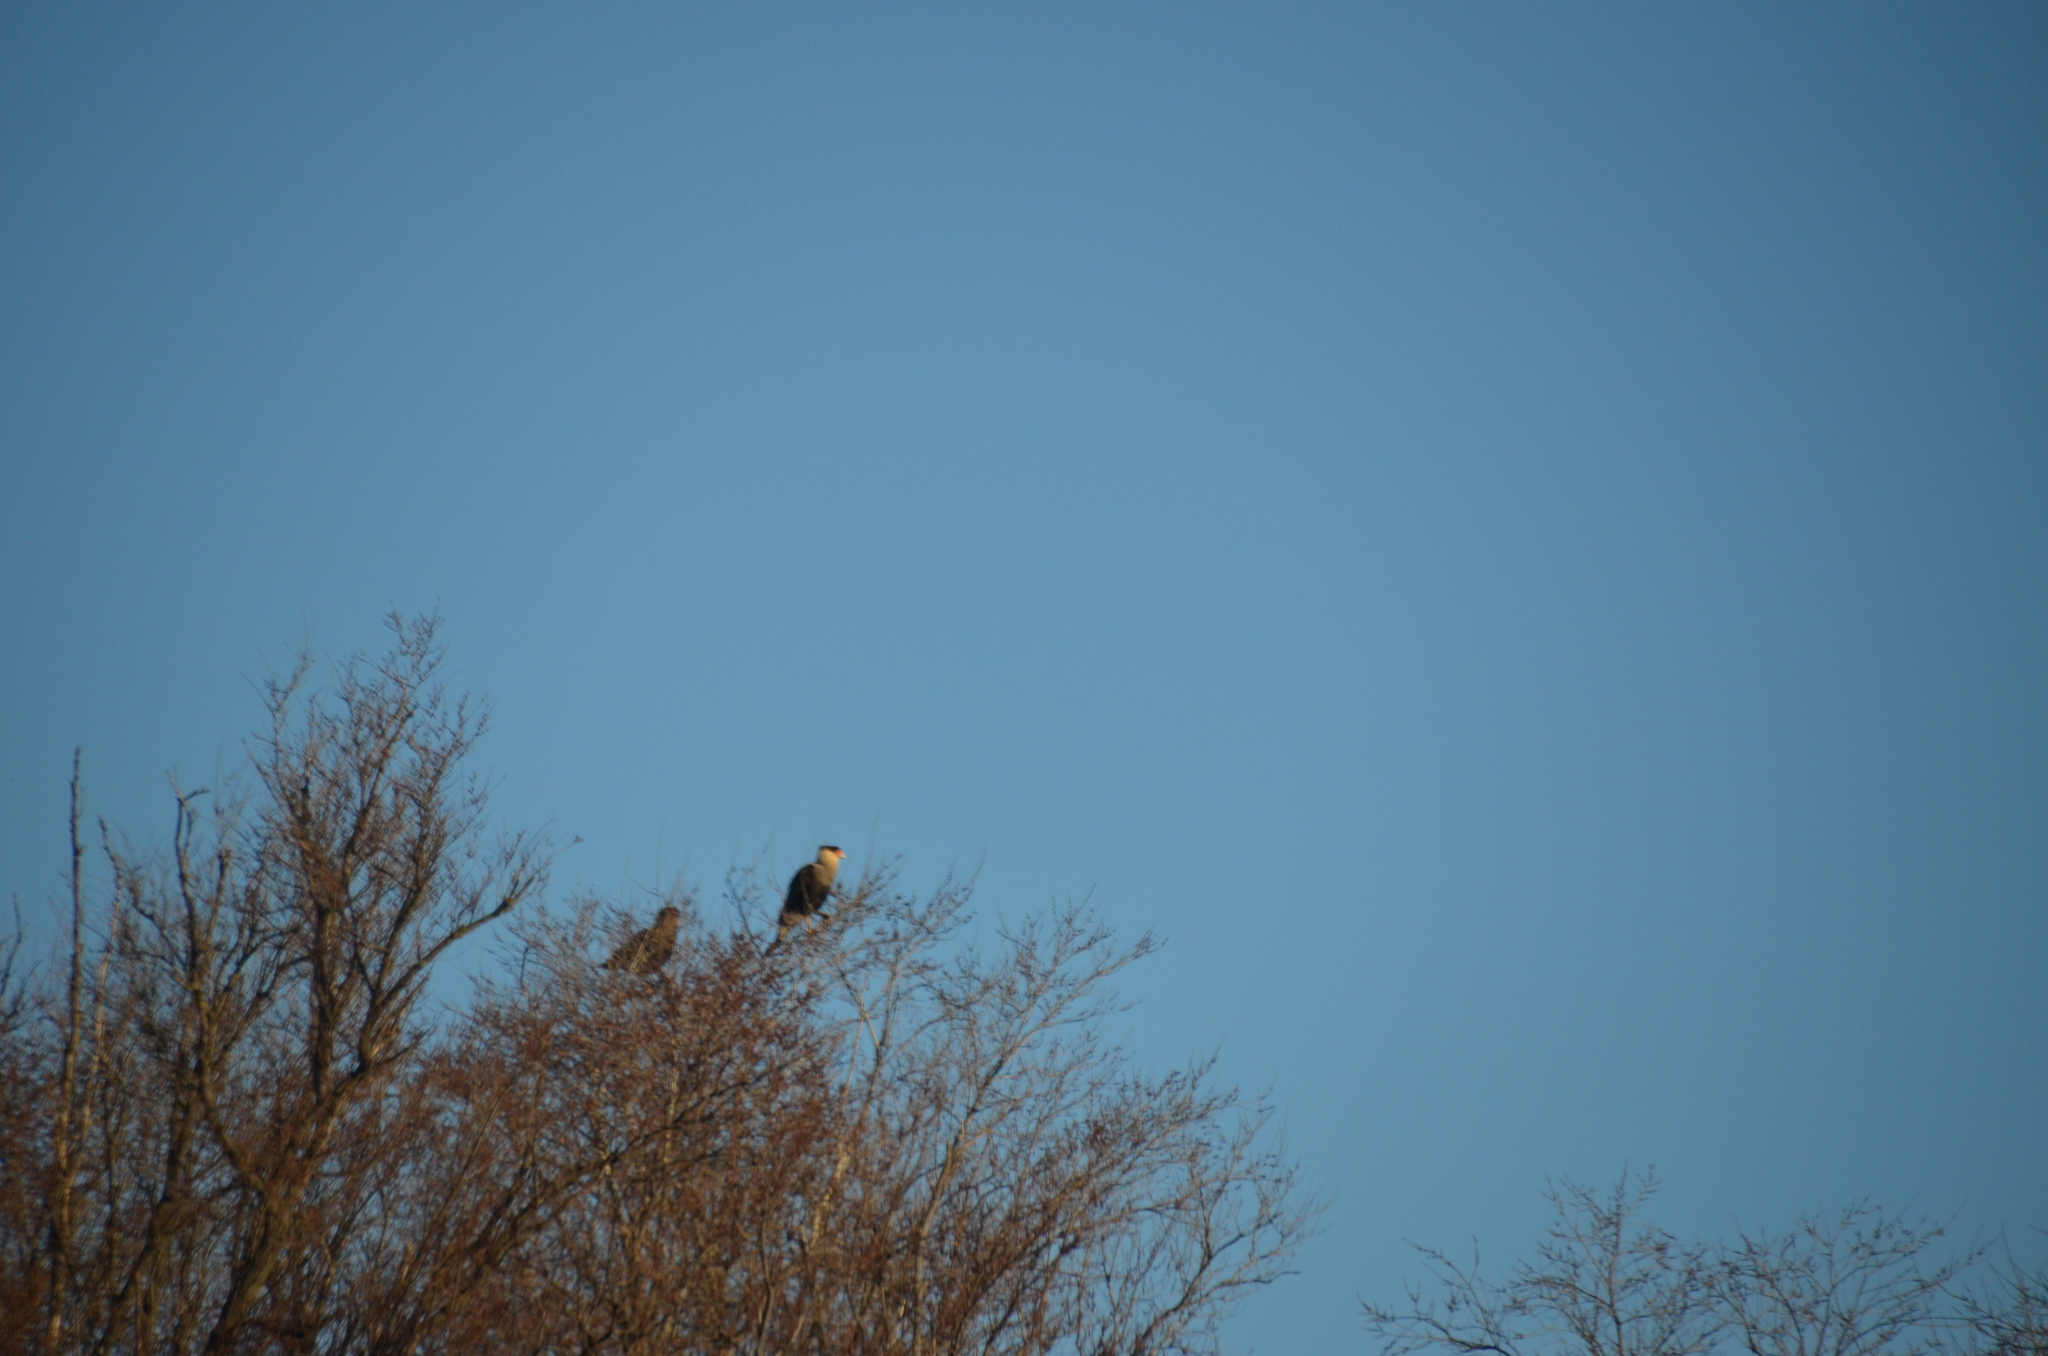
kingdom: Animalia
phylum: Chordata
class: Aves
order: Falconiformes
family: Falconidae
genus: Caracara
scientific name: Caracara plancus
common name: Southern caracara
